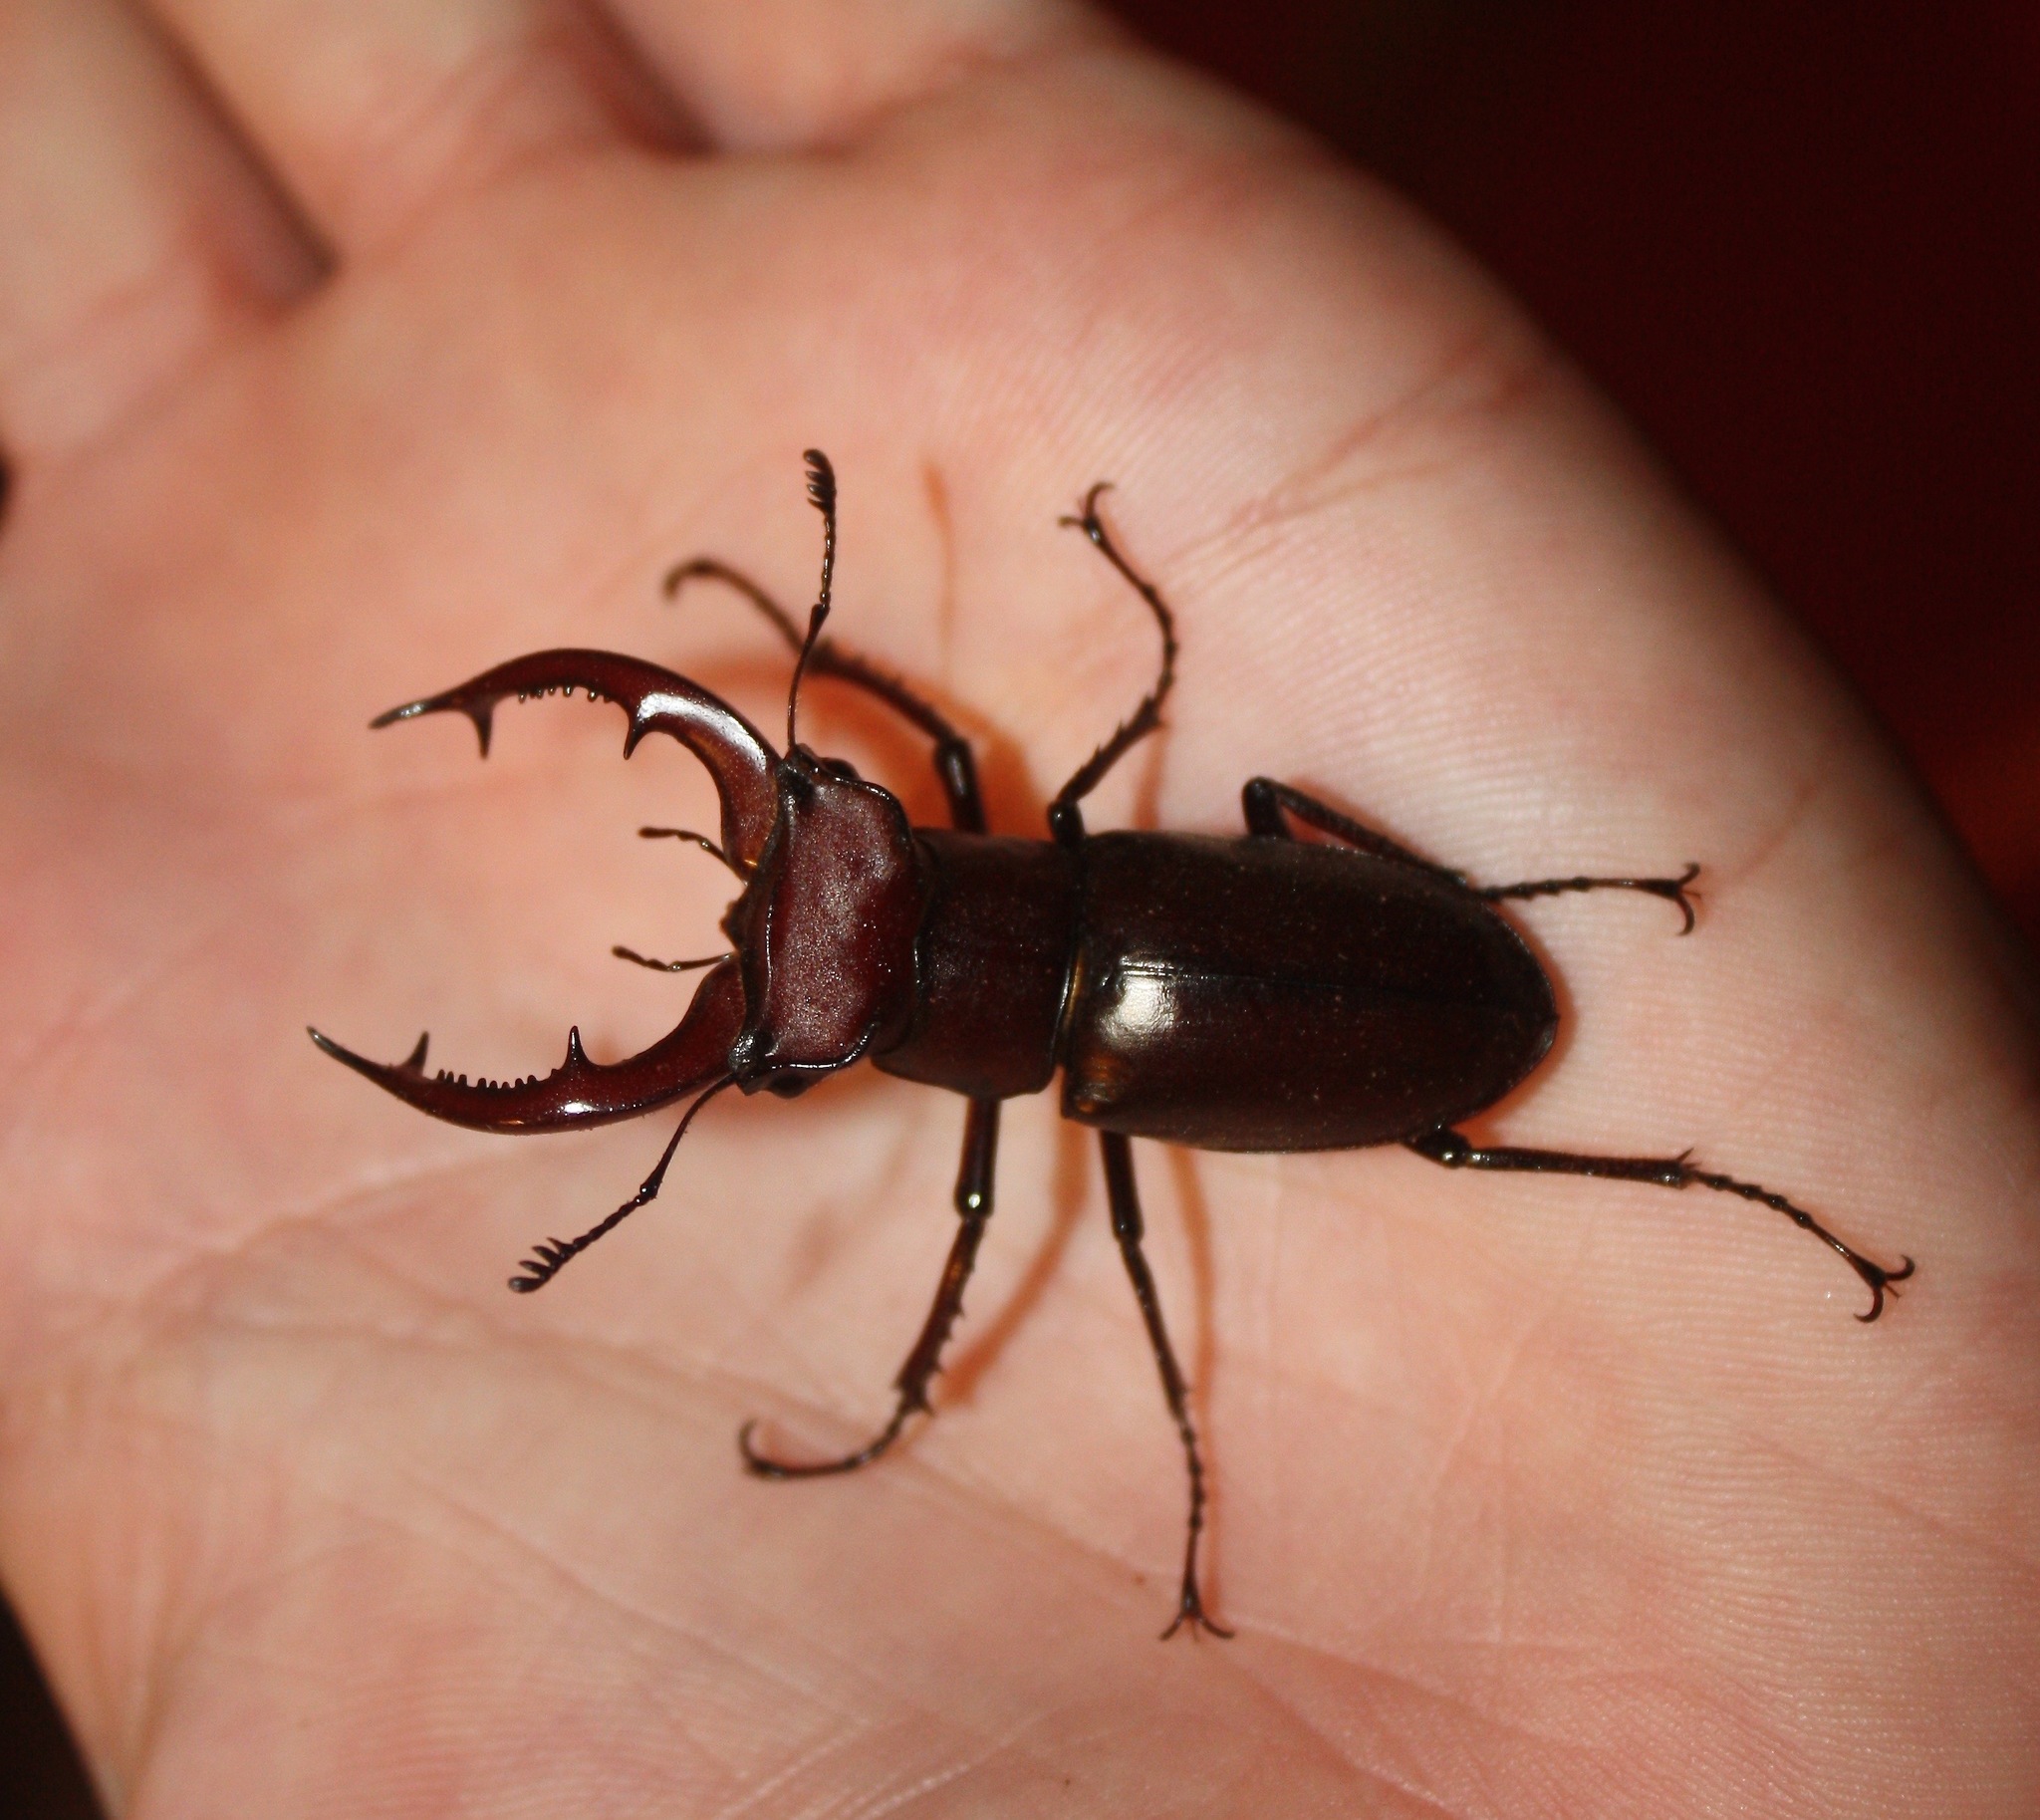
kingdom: Animalia
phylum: Arthropoda
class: Insecta
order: Coleoptera
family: Lucanidae
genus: Lucanus
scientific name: Lucanus elaphus
